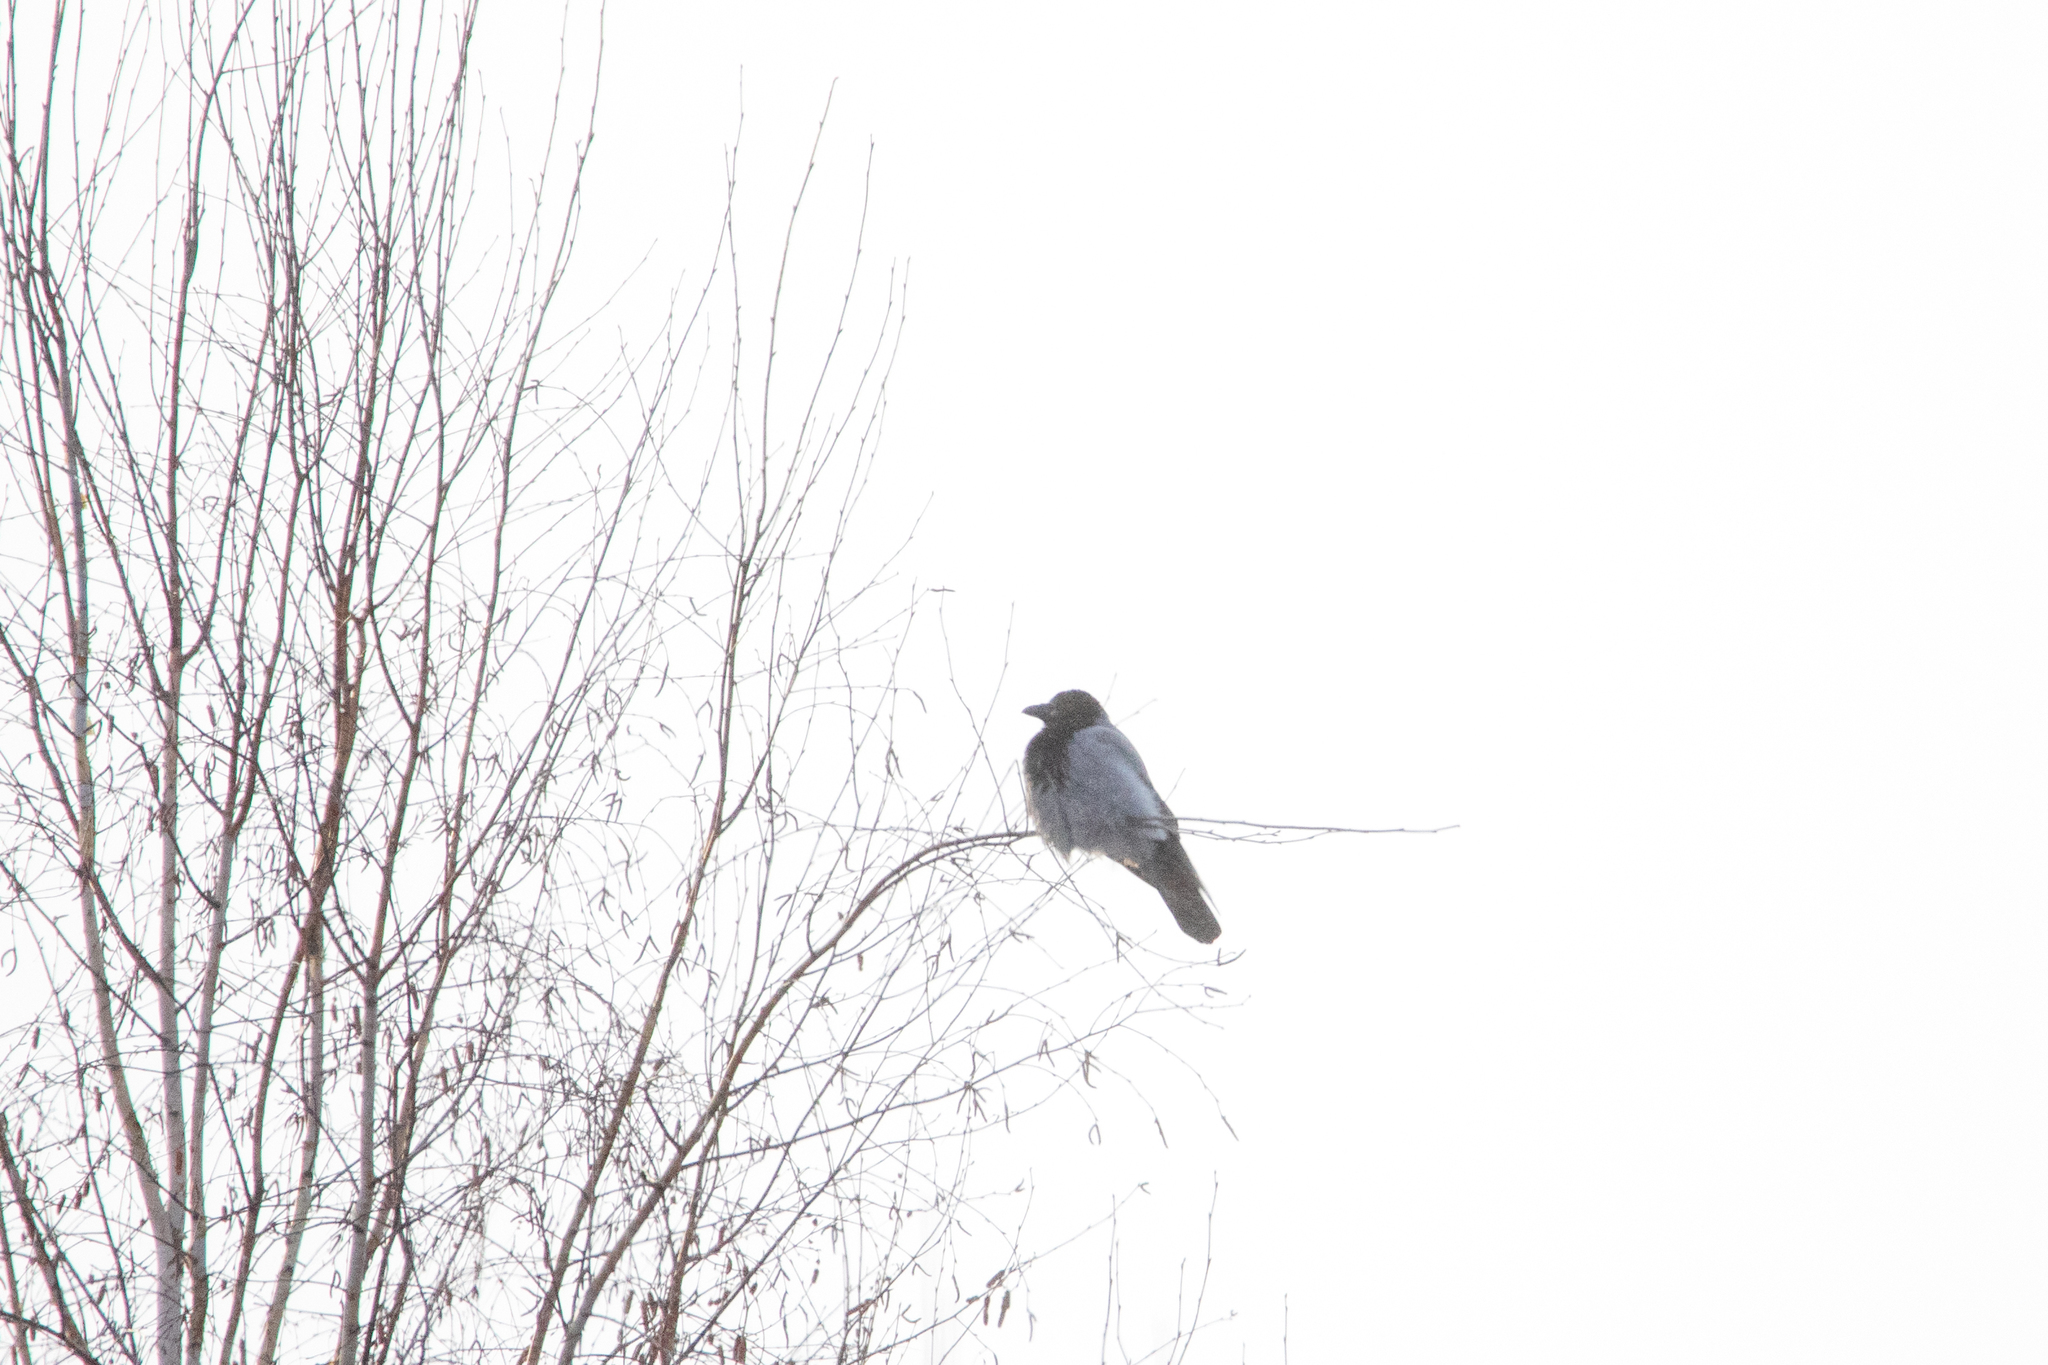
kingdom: Animalia
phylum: Chordata
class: Aves
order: Passeriformes
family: Corvidae
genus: Corvus
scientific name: Corvus cornix
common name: Hooded crow
